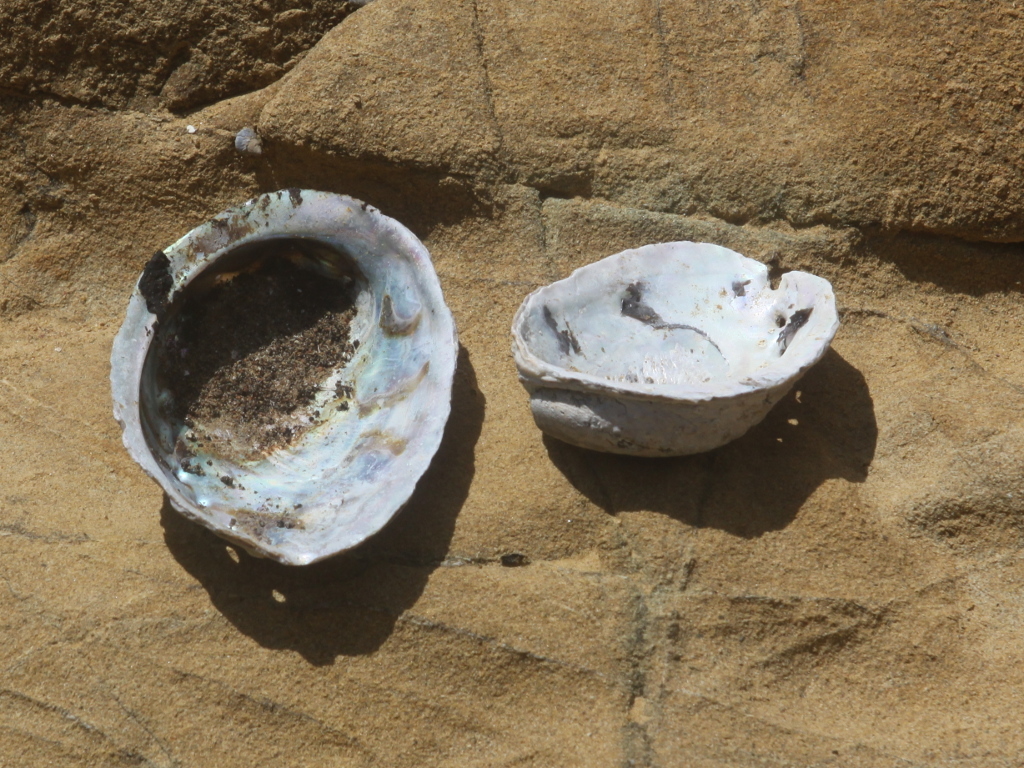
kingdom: Animalia
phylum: Mollusca
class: Gastropoda
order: Lepetellida
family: Haliotidae
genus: Haliotis
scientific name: Haliotis iris
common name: Abalone
